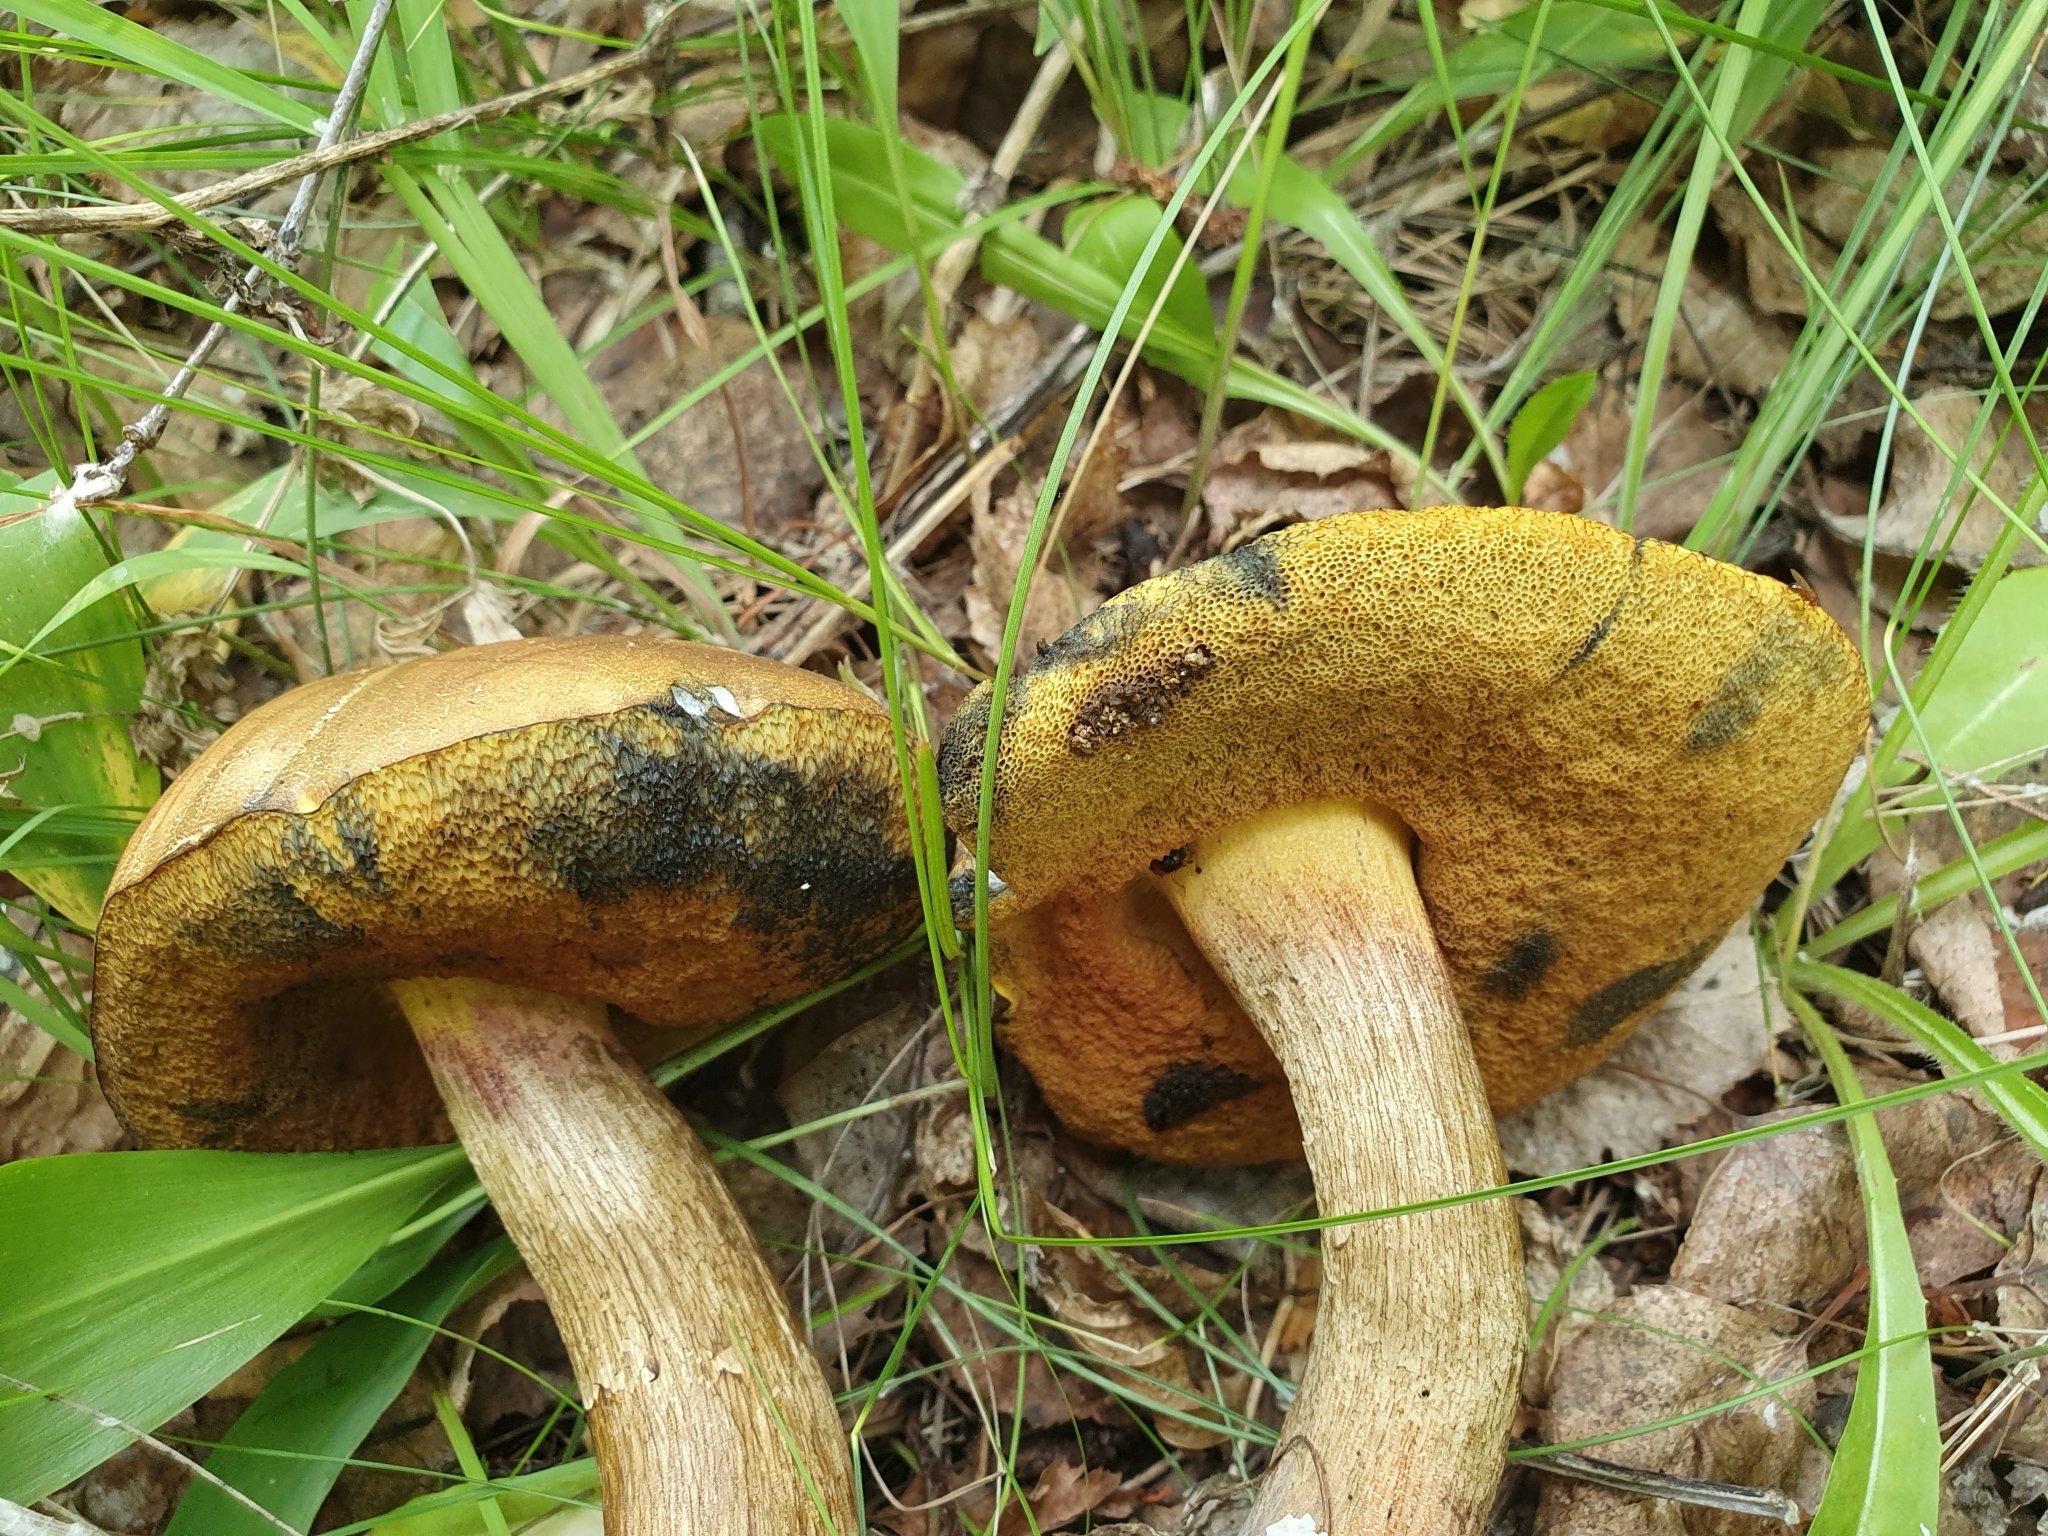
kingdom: Fungi
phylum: Basidiomycota
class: Agaricomycetes
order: Boletales
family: Boletaceae
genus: Suillellus
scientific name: Suillellus luridus
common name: Lurid bolete
